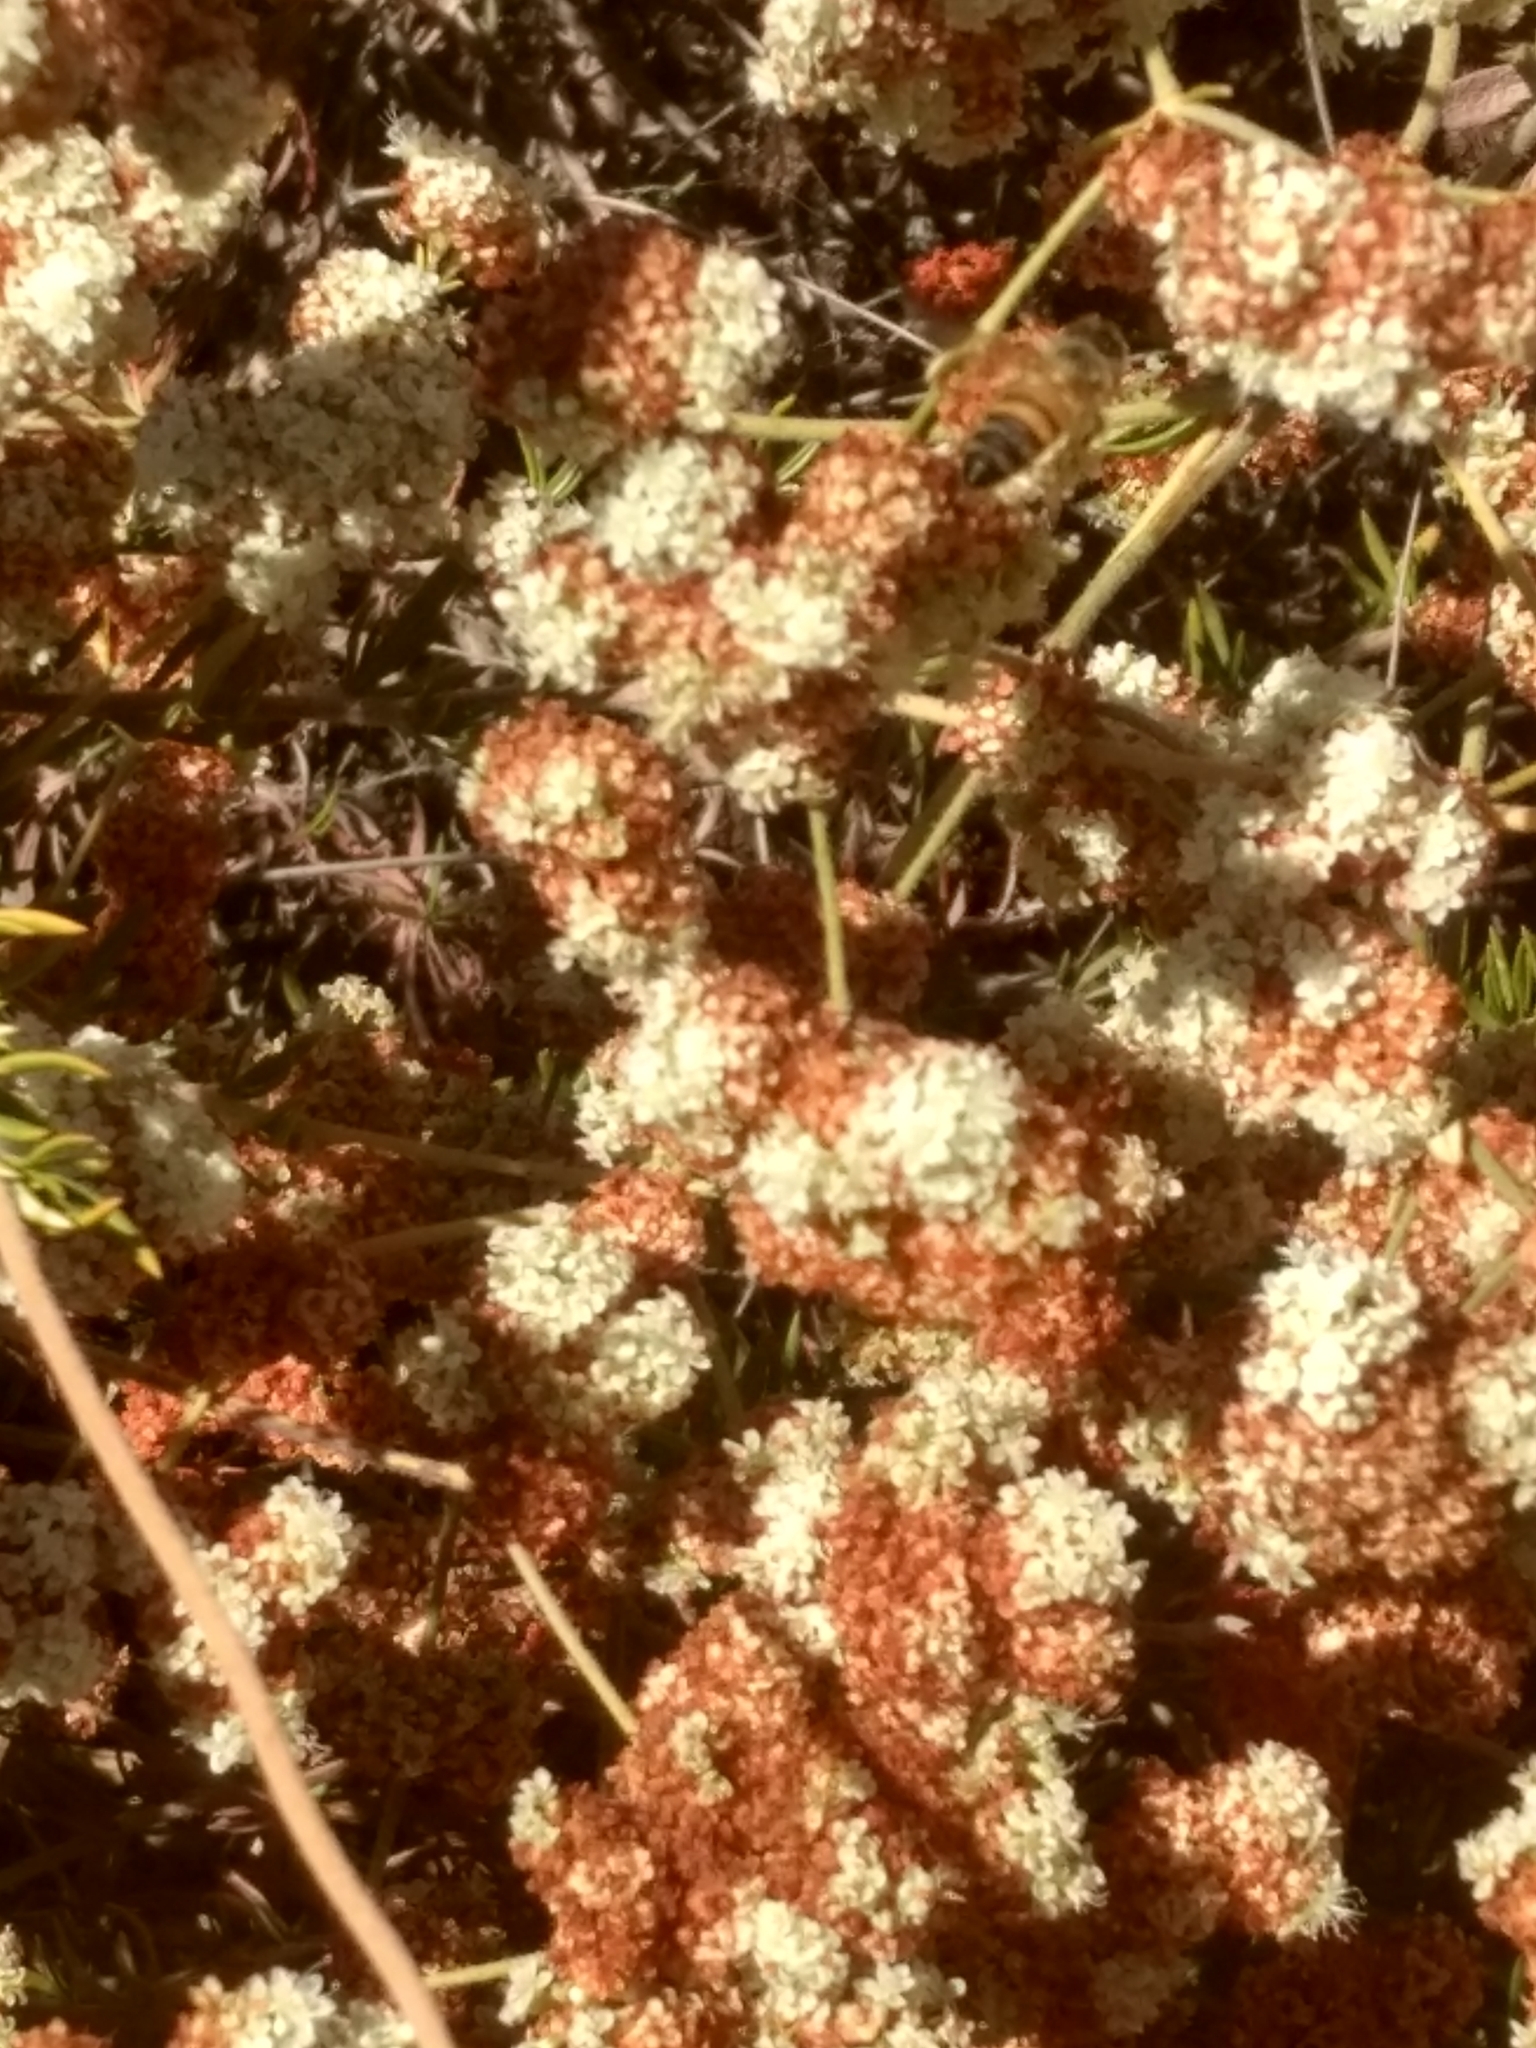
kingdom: Animalia
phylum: Arthropoda
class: Insecta
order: Hymenoptera
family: Apidae
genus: Apis
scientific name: Apis mellifera
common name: Honey bee
